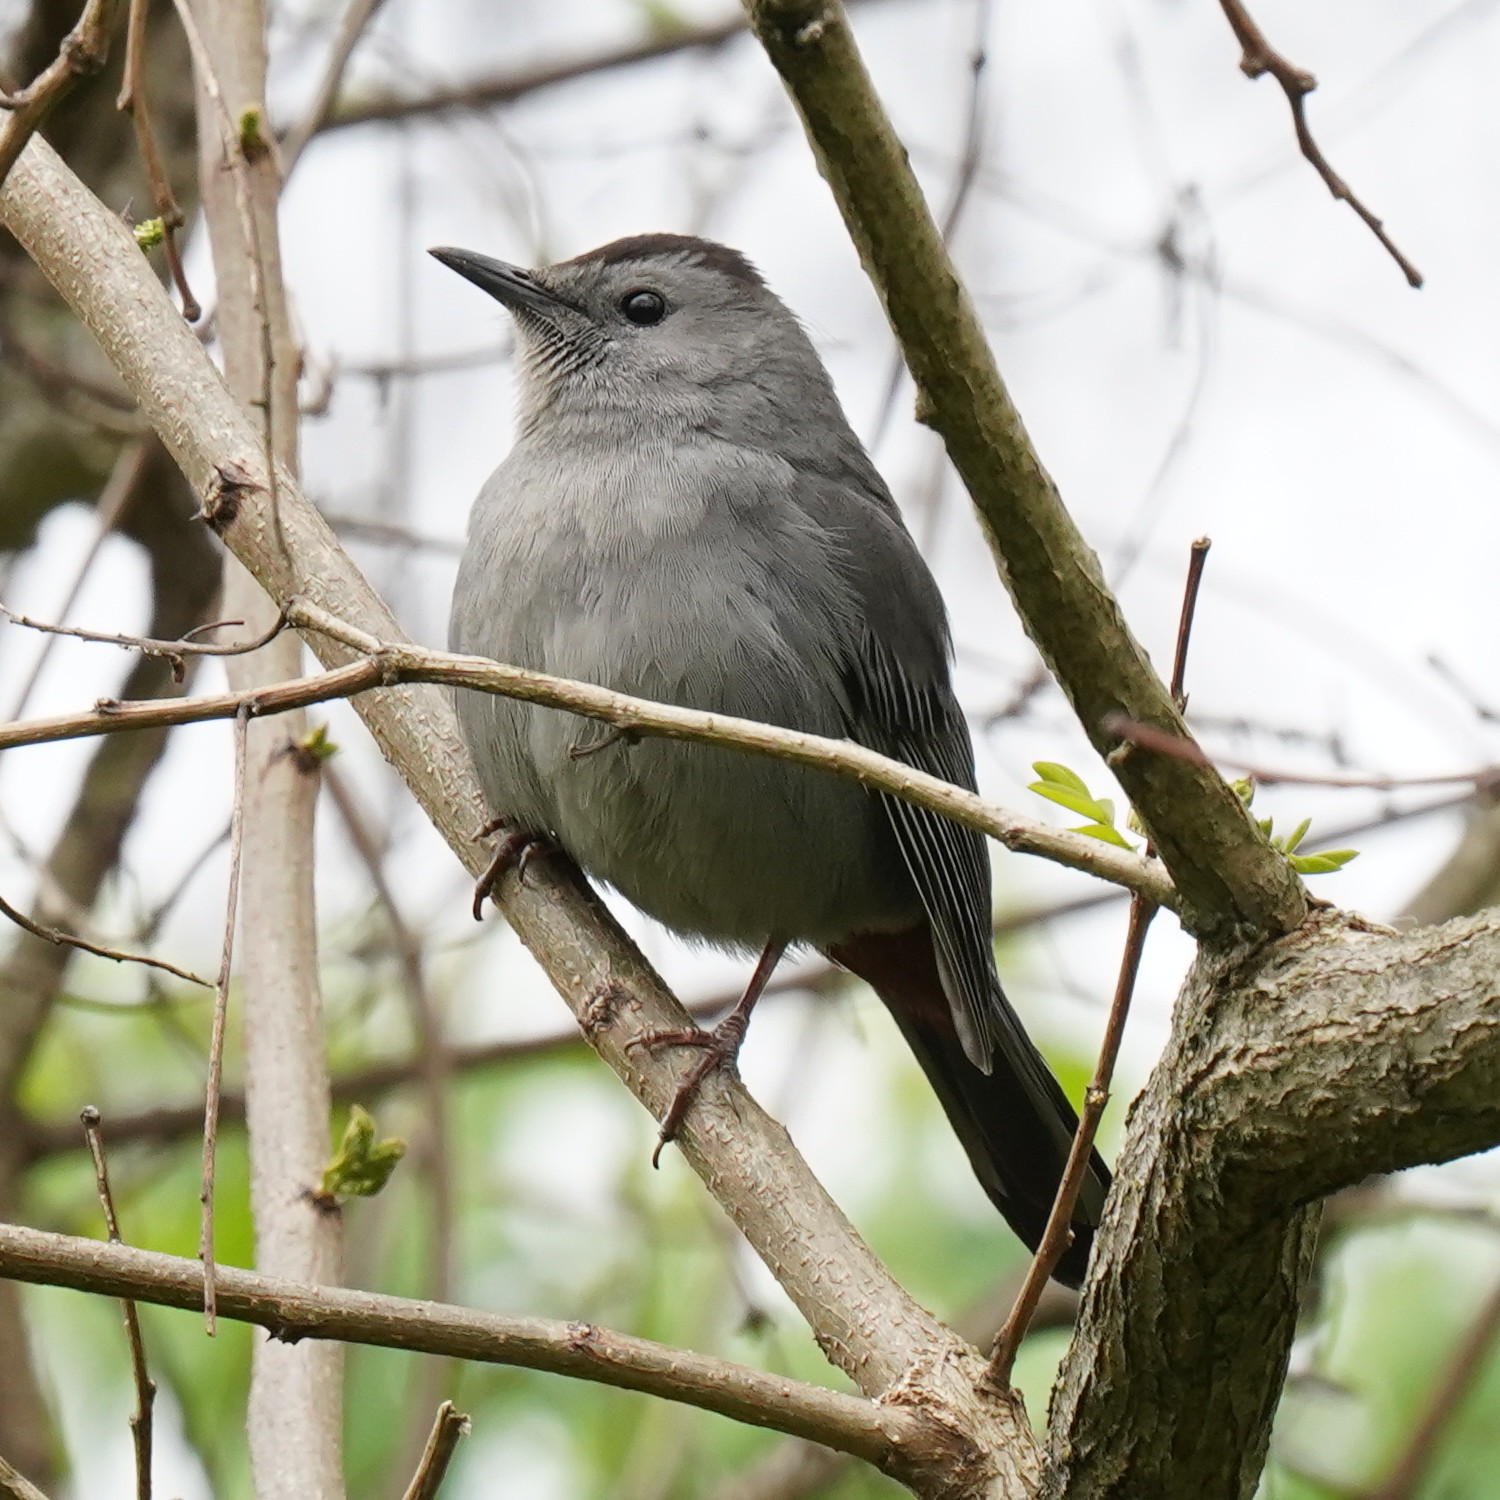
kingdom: Animalia
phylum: Chordata
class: Aves
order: Passeriformes
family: Mimidae
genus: Dumetella
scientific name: Dumetella carolinensis
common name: Gray catbird
